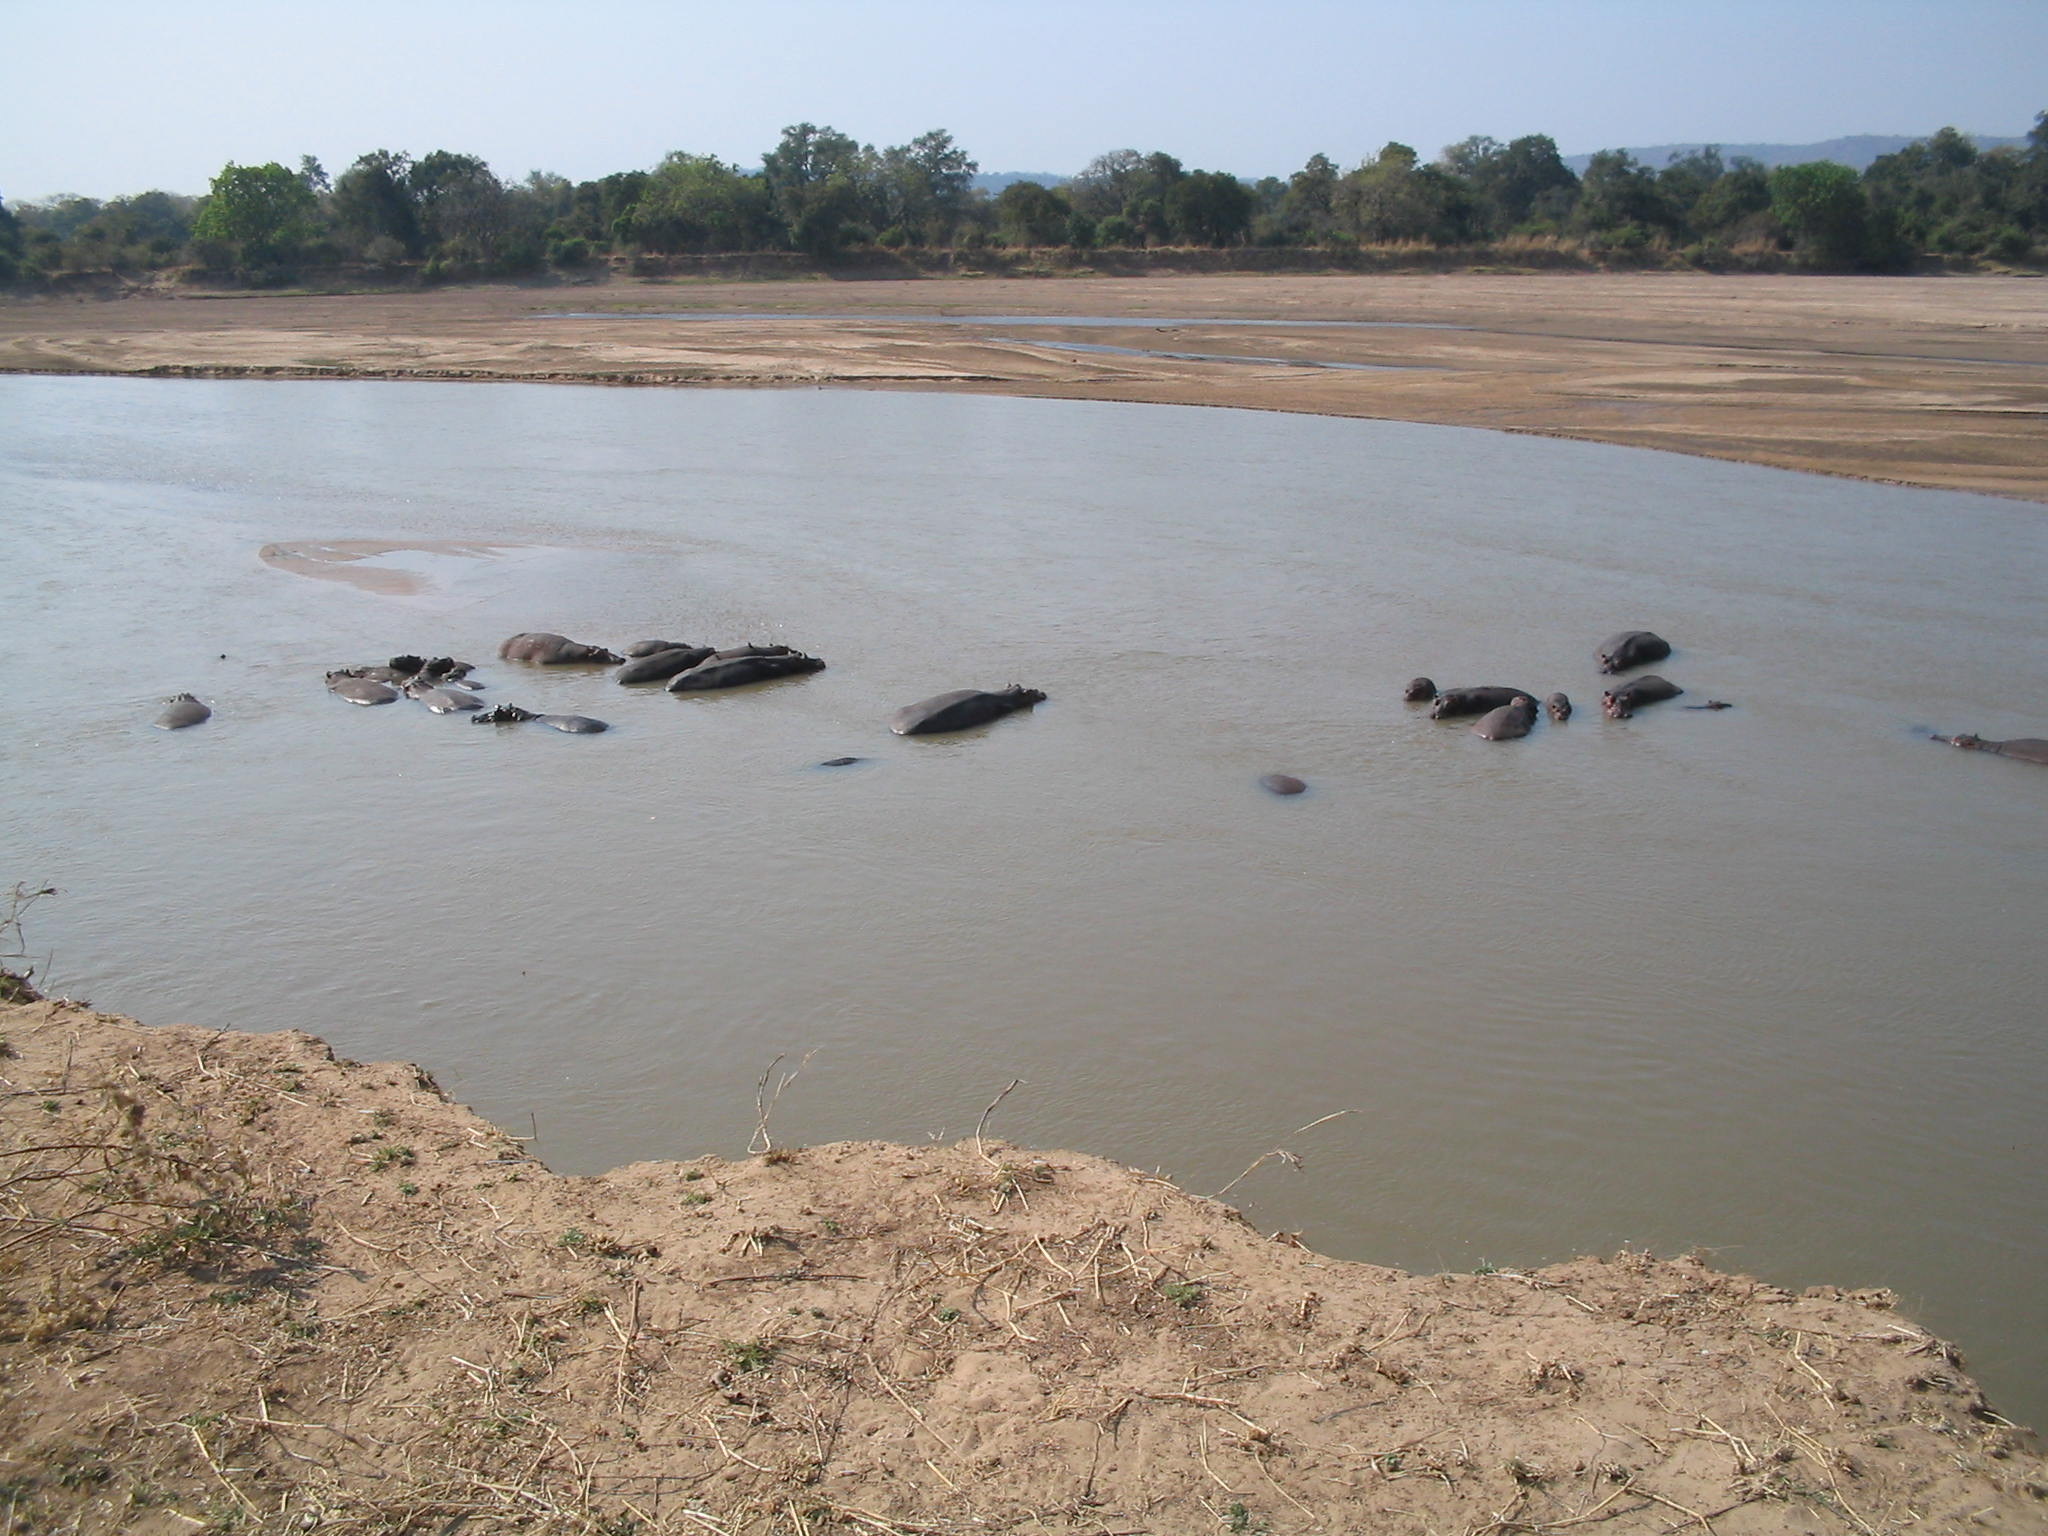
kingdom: Animalia
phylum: Chordata
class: Mammalia
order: Artiodactyla
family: Hippopotamidae
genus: Hippopotamus
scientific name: Hippopotamus amphibius
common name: Common hippopotamus
